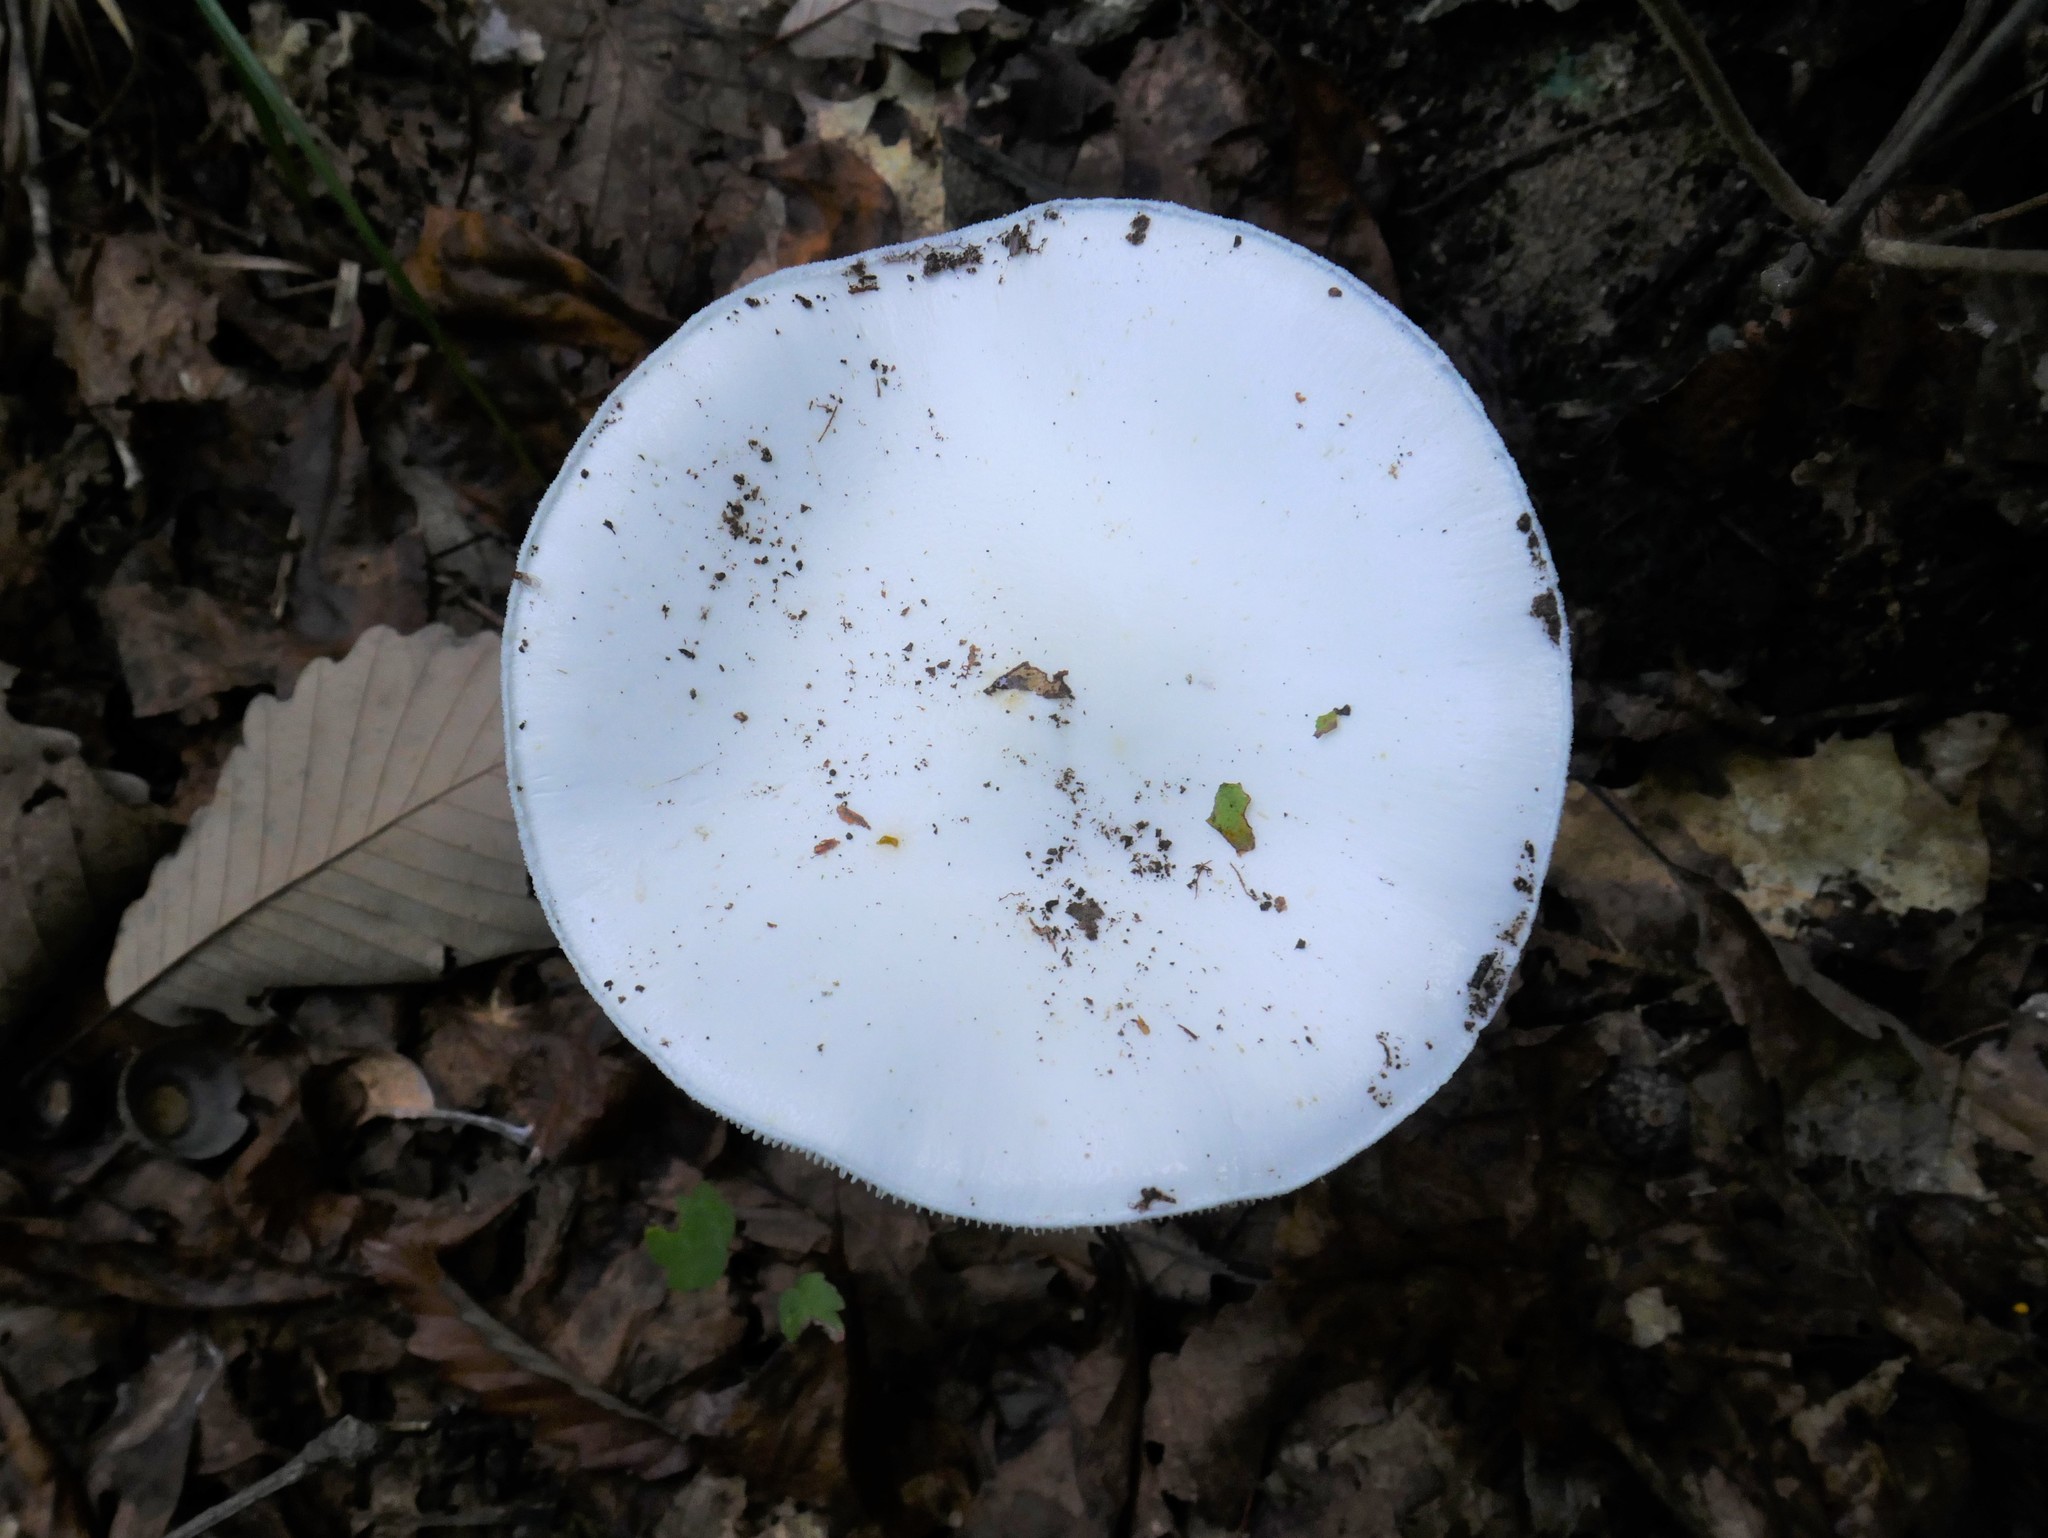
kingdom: Fungi
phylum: Basidiomycota
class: Agaricomycetes
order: Agaricales
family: Amanitaceae
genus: Amanita
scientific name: Amanita bisporigera
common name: Eastern north american destroying angel
